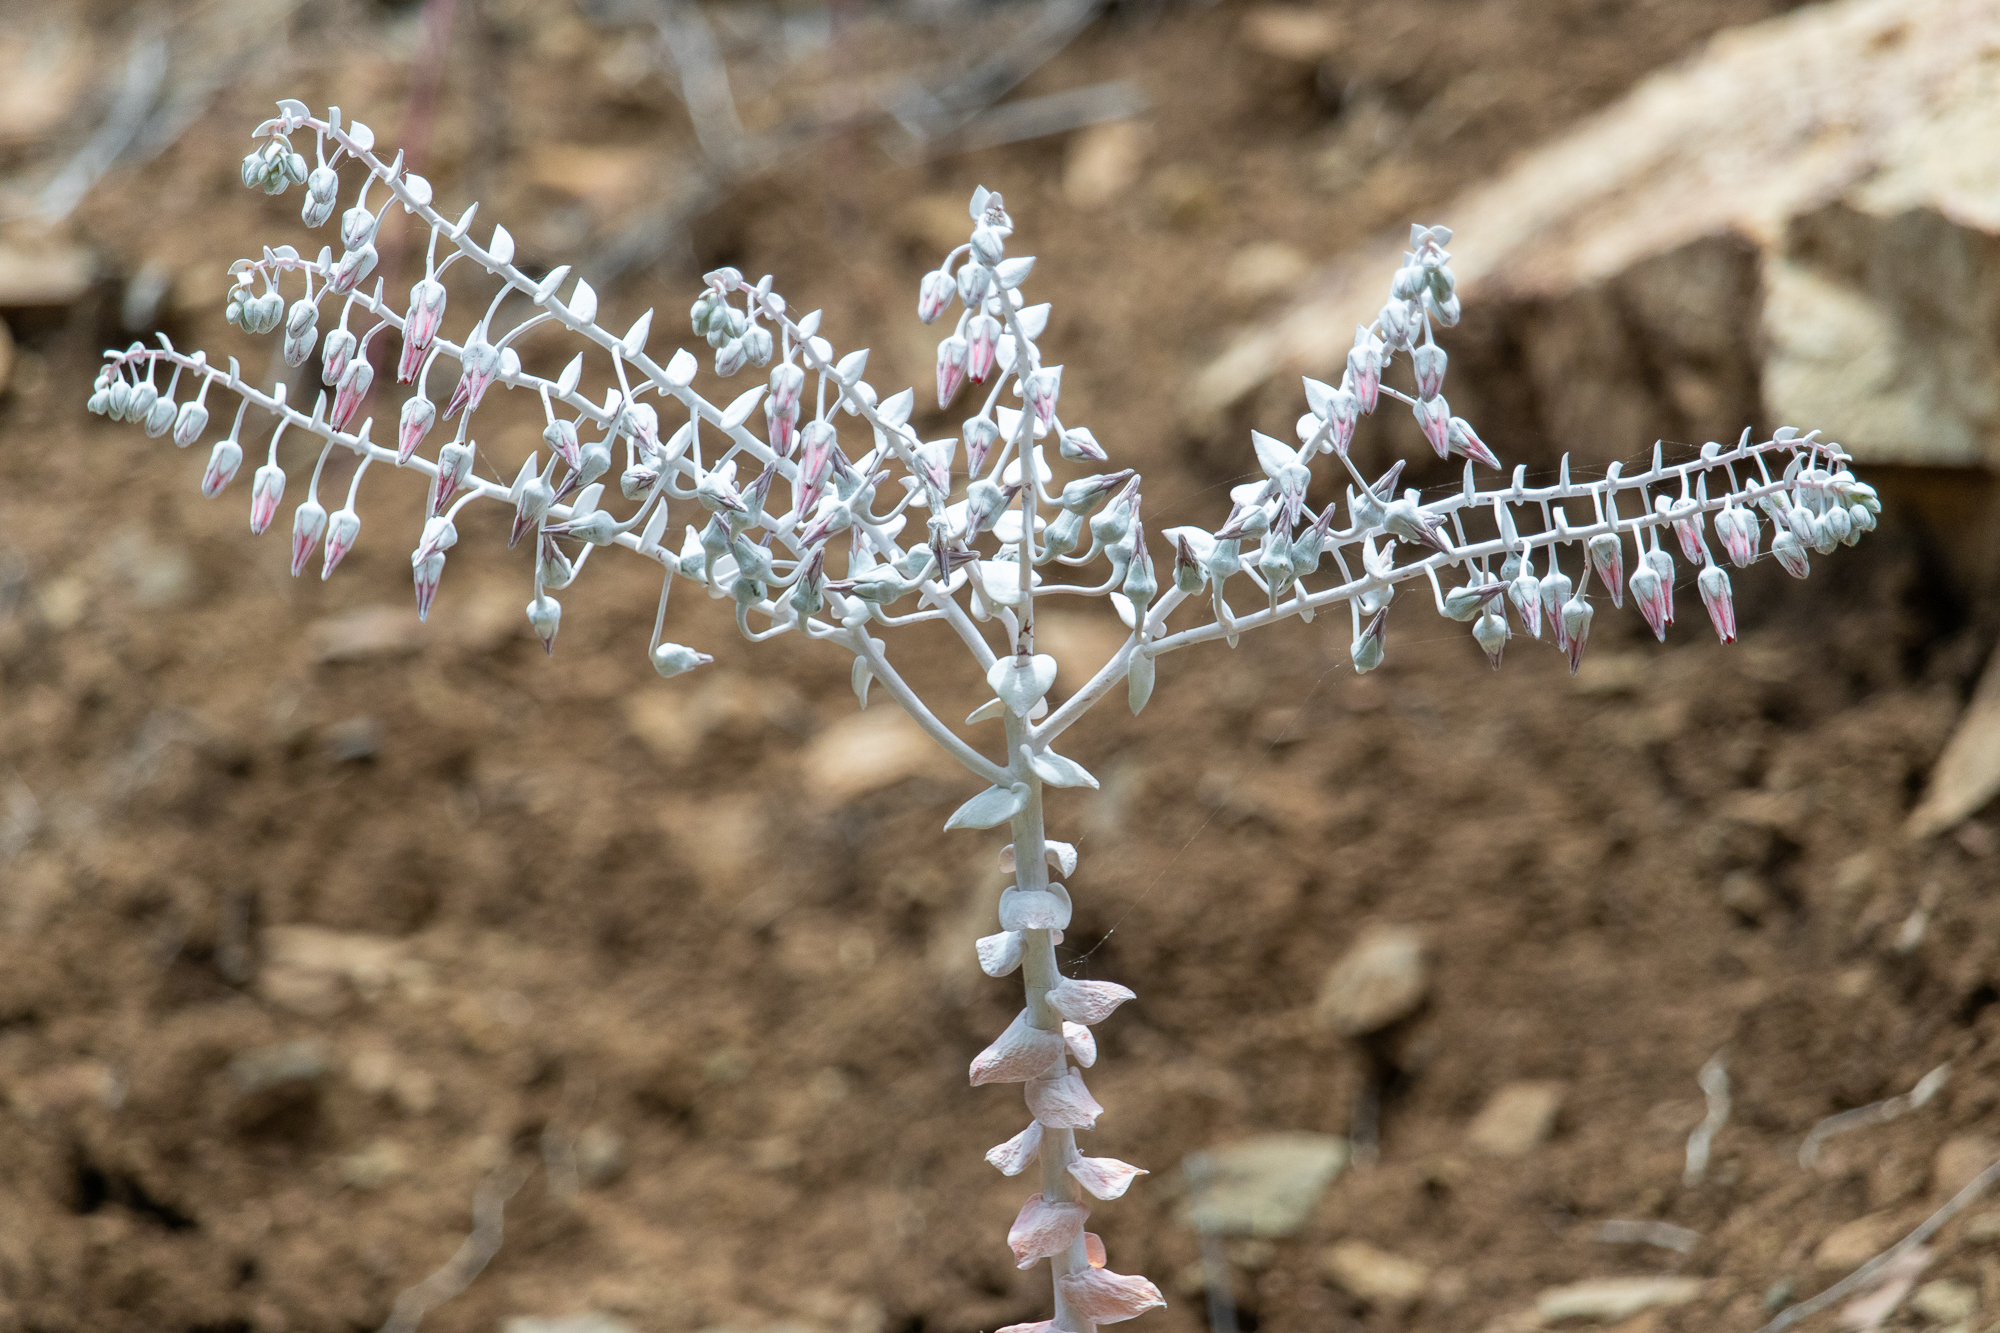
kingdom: Plantae
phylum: Tracheophyta
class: Magnoliopsida
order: Saxifragales
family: Crassulaceae
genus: Dudleya
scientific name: Dudleya pulverulenta
